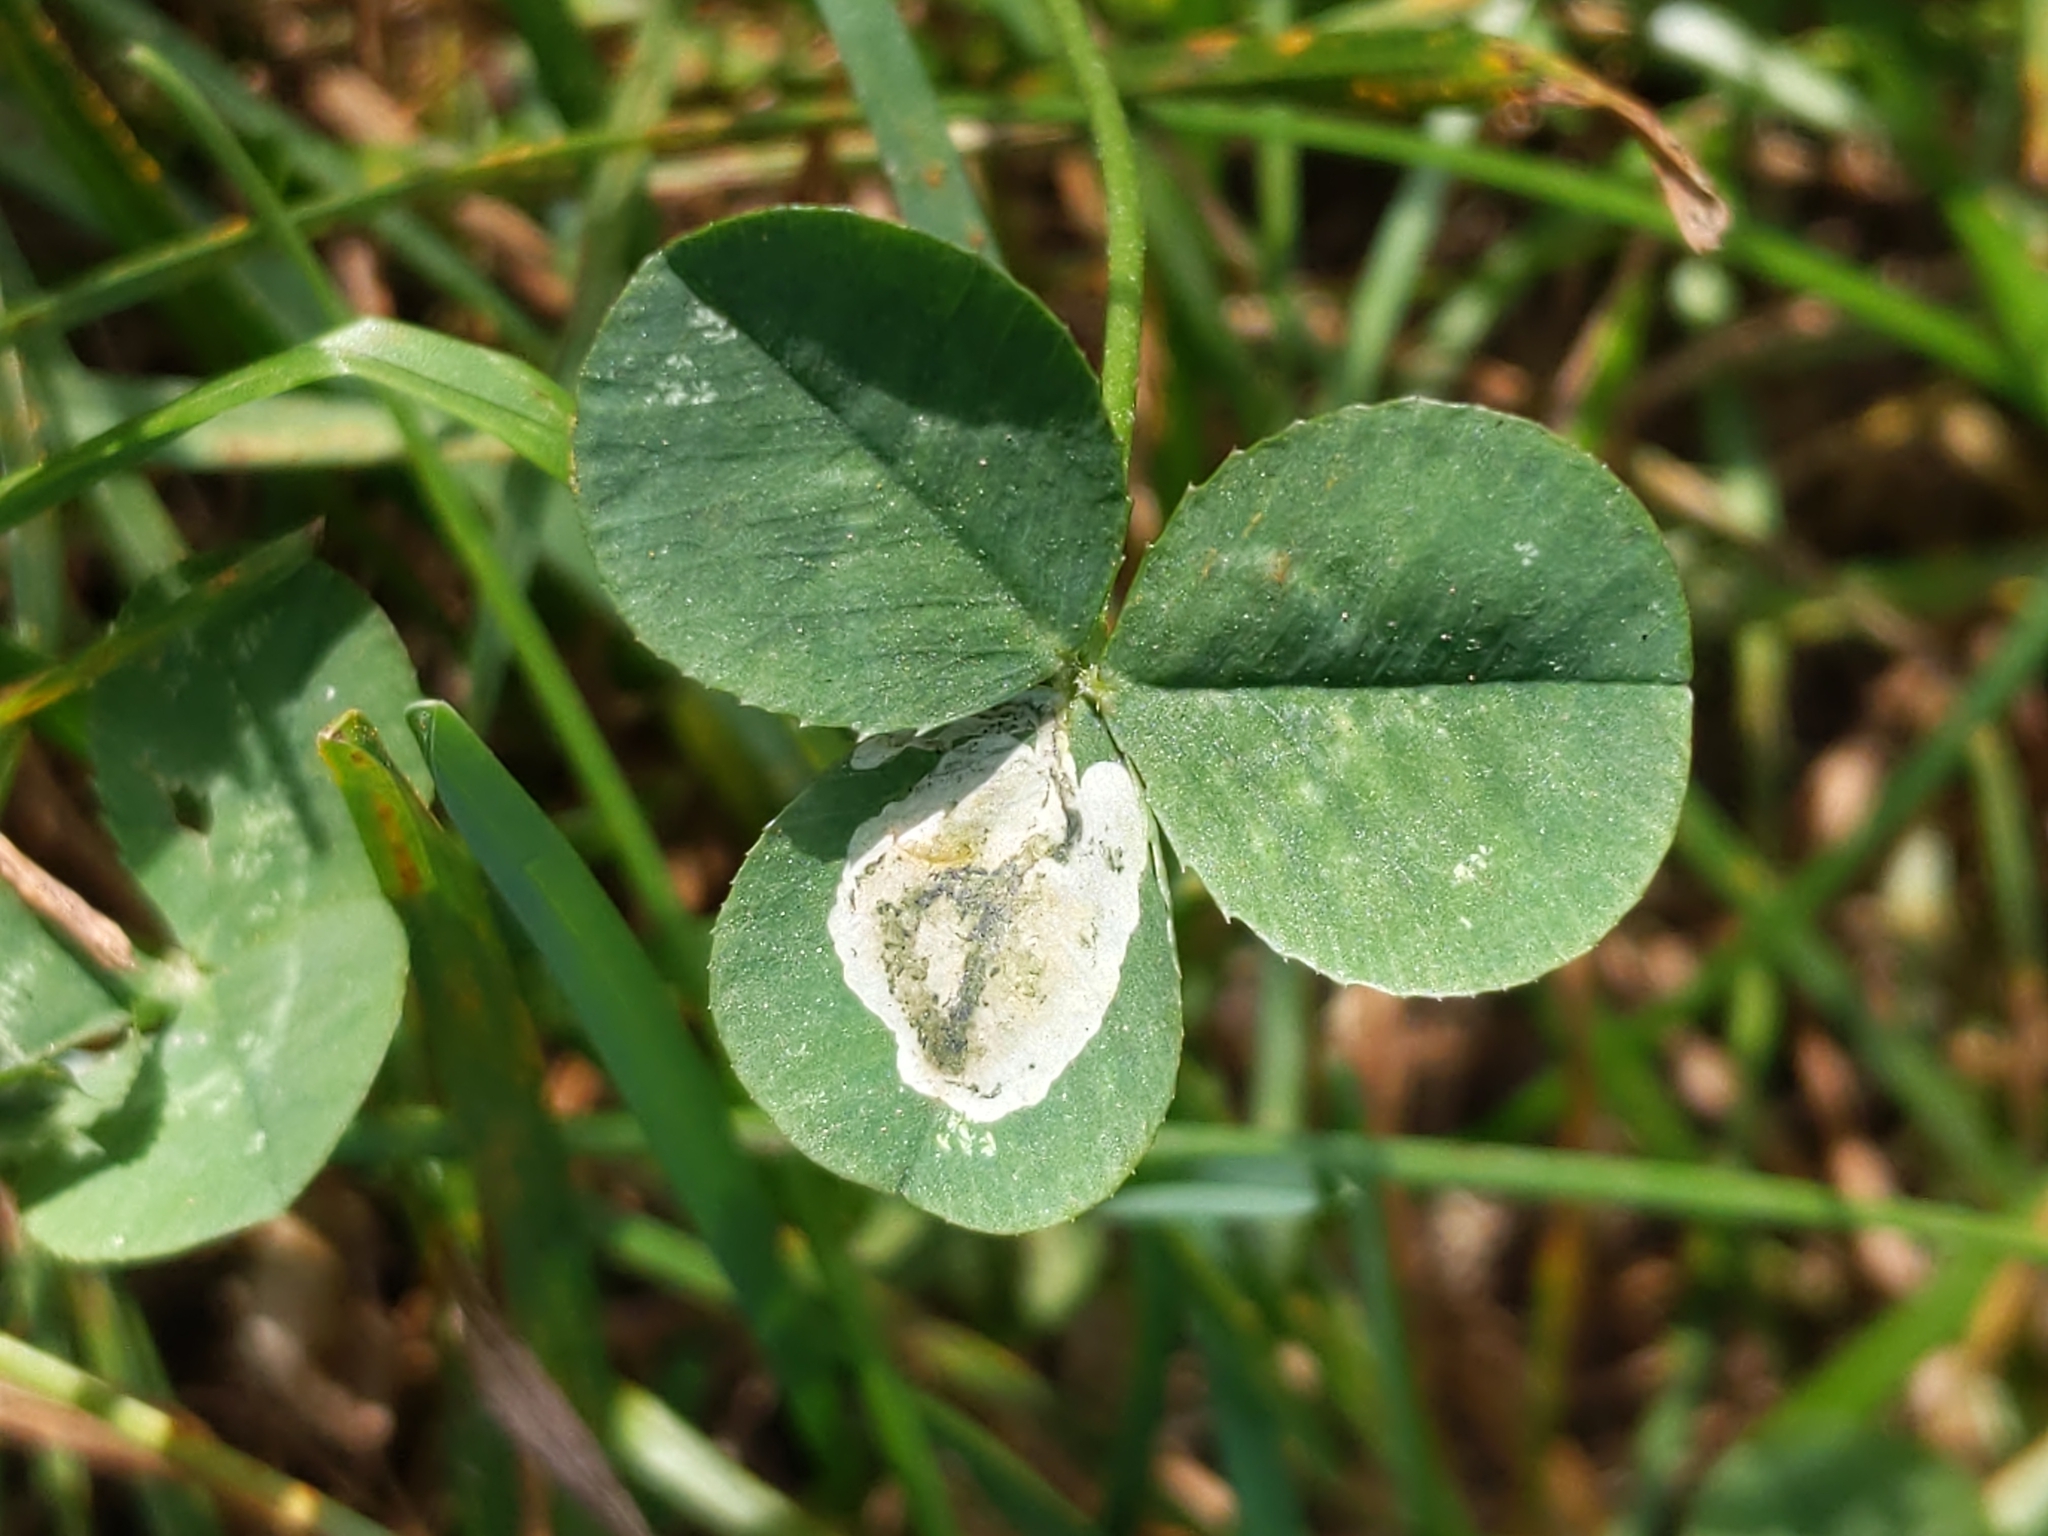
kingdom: Plantae
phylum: Tracheophyta
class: Magnoliopsida
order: Fabales
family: Fabaceae
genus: Trifolium
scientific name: Trifolium repens
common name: White clover
